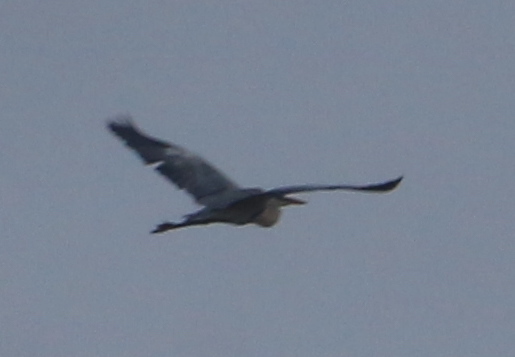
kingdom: Animalia
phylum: Chordata
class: Aves
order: Pelecaniformes
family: Ardeidae
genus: Ardea
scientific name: Ardea cocoi
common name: Cocoi heron
